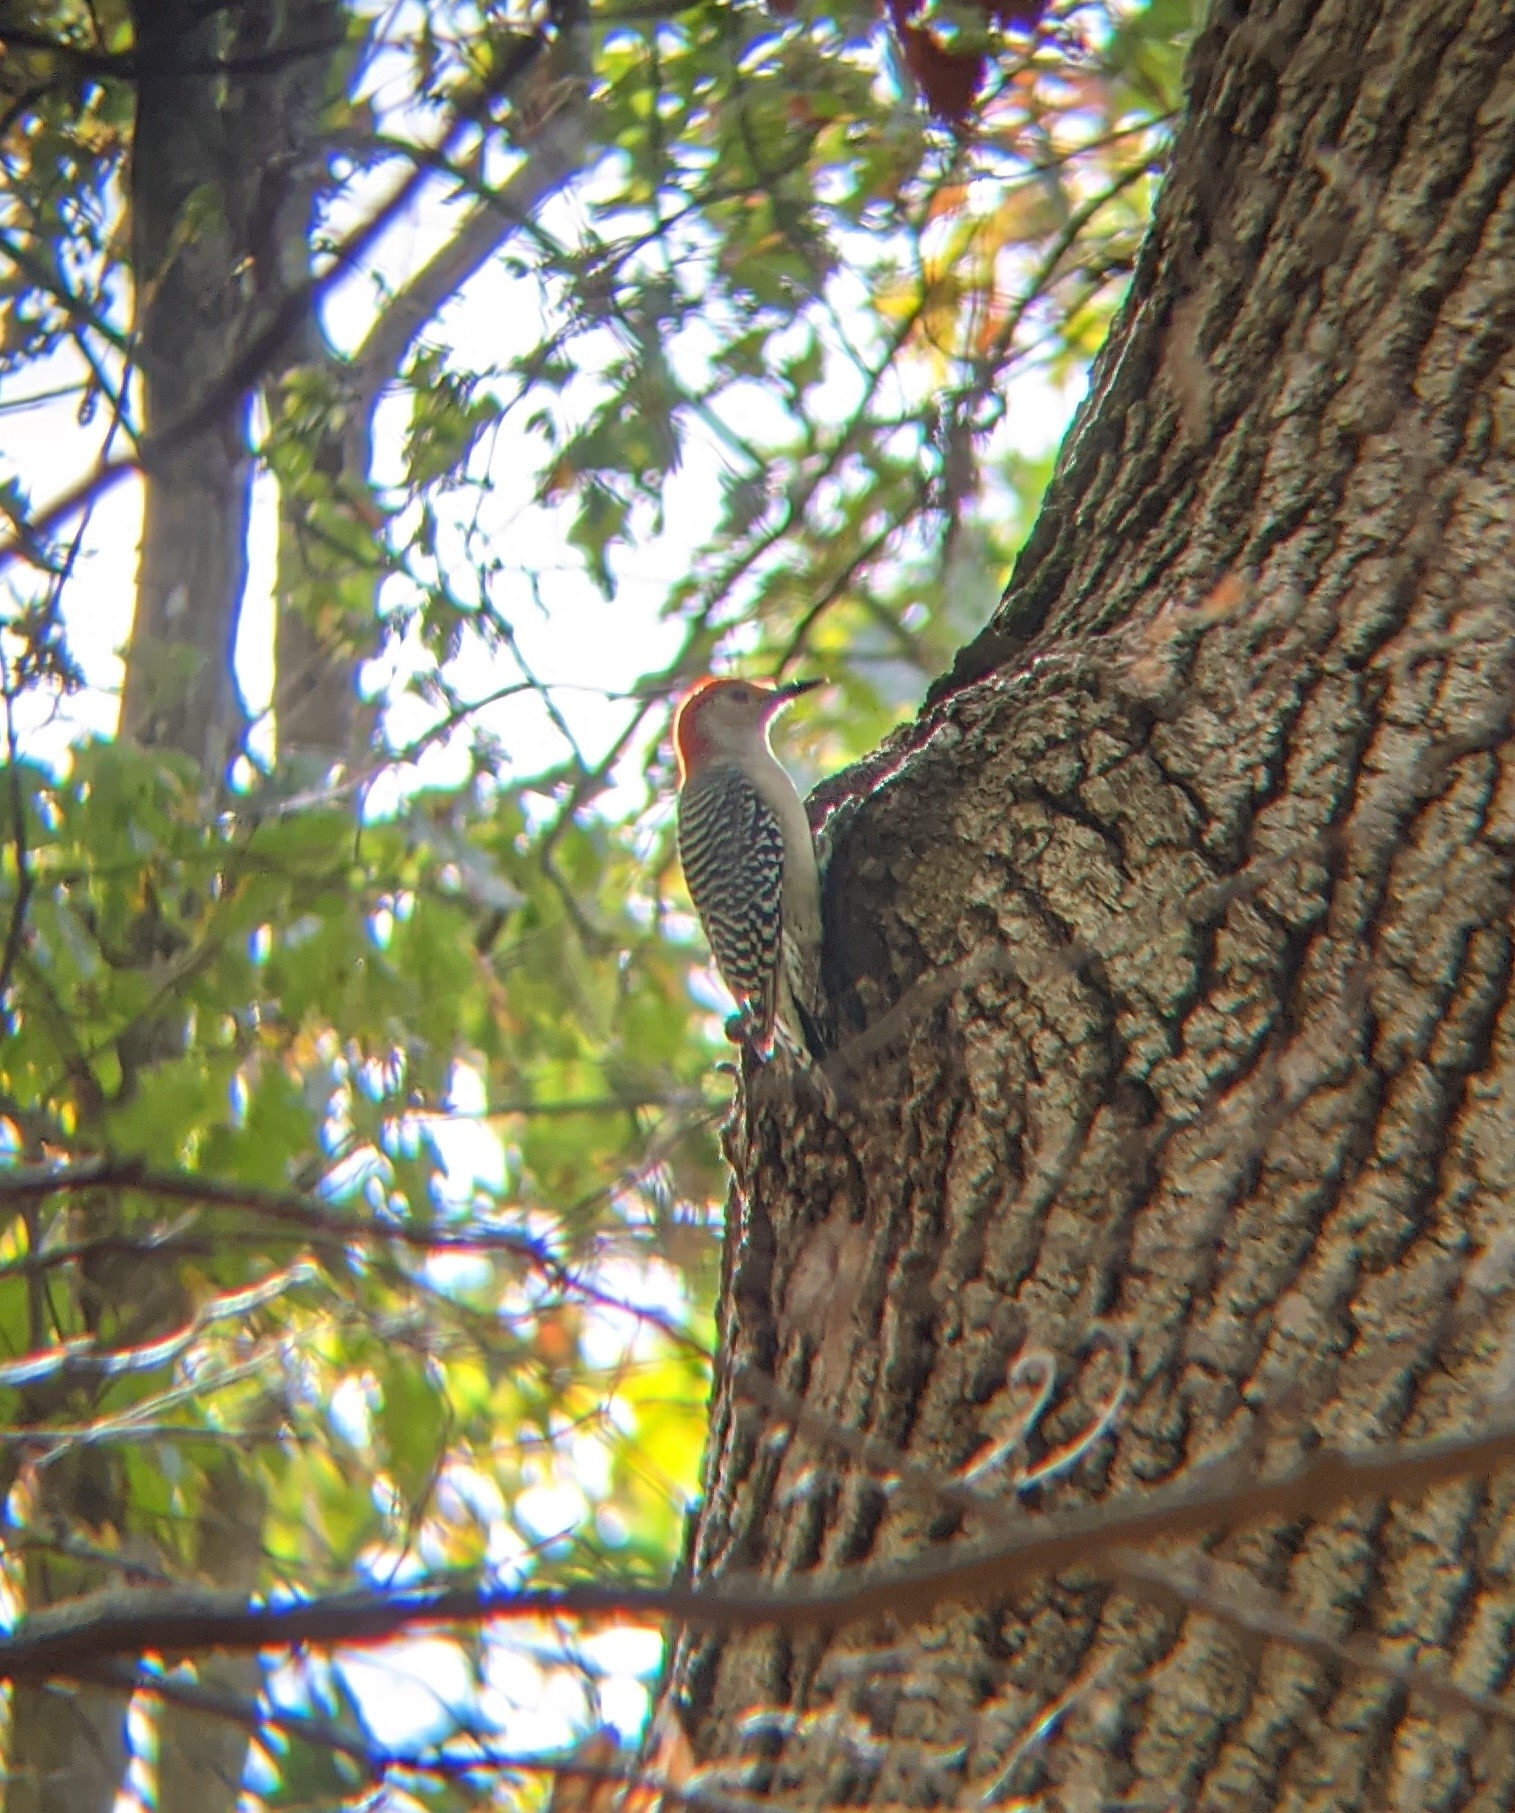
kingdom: Animalia
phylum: Chordata
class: Aves
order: Piciformes
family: Picidae
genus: Melanerpes
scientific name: Melanerpes carolinus
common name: Red-bellied woodpecker
